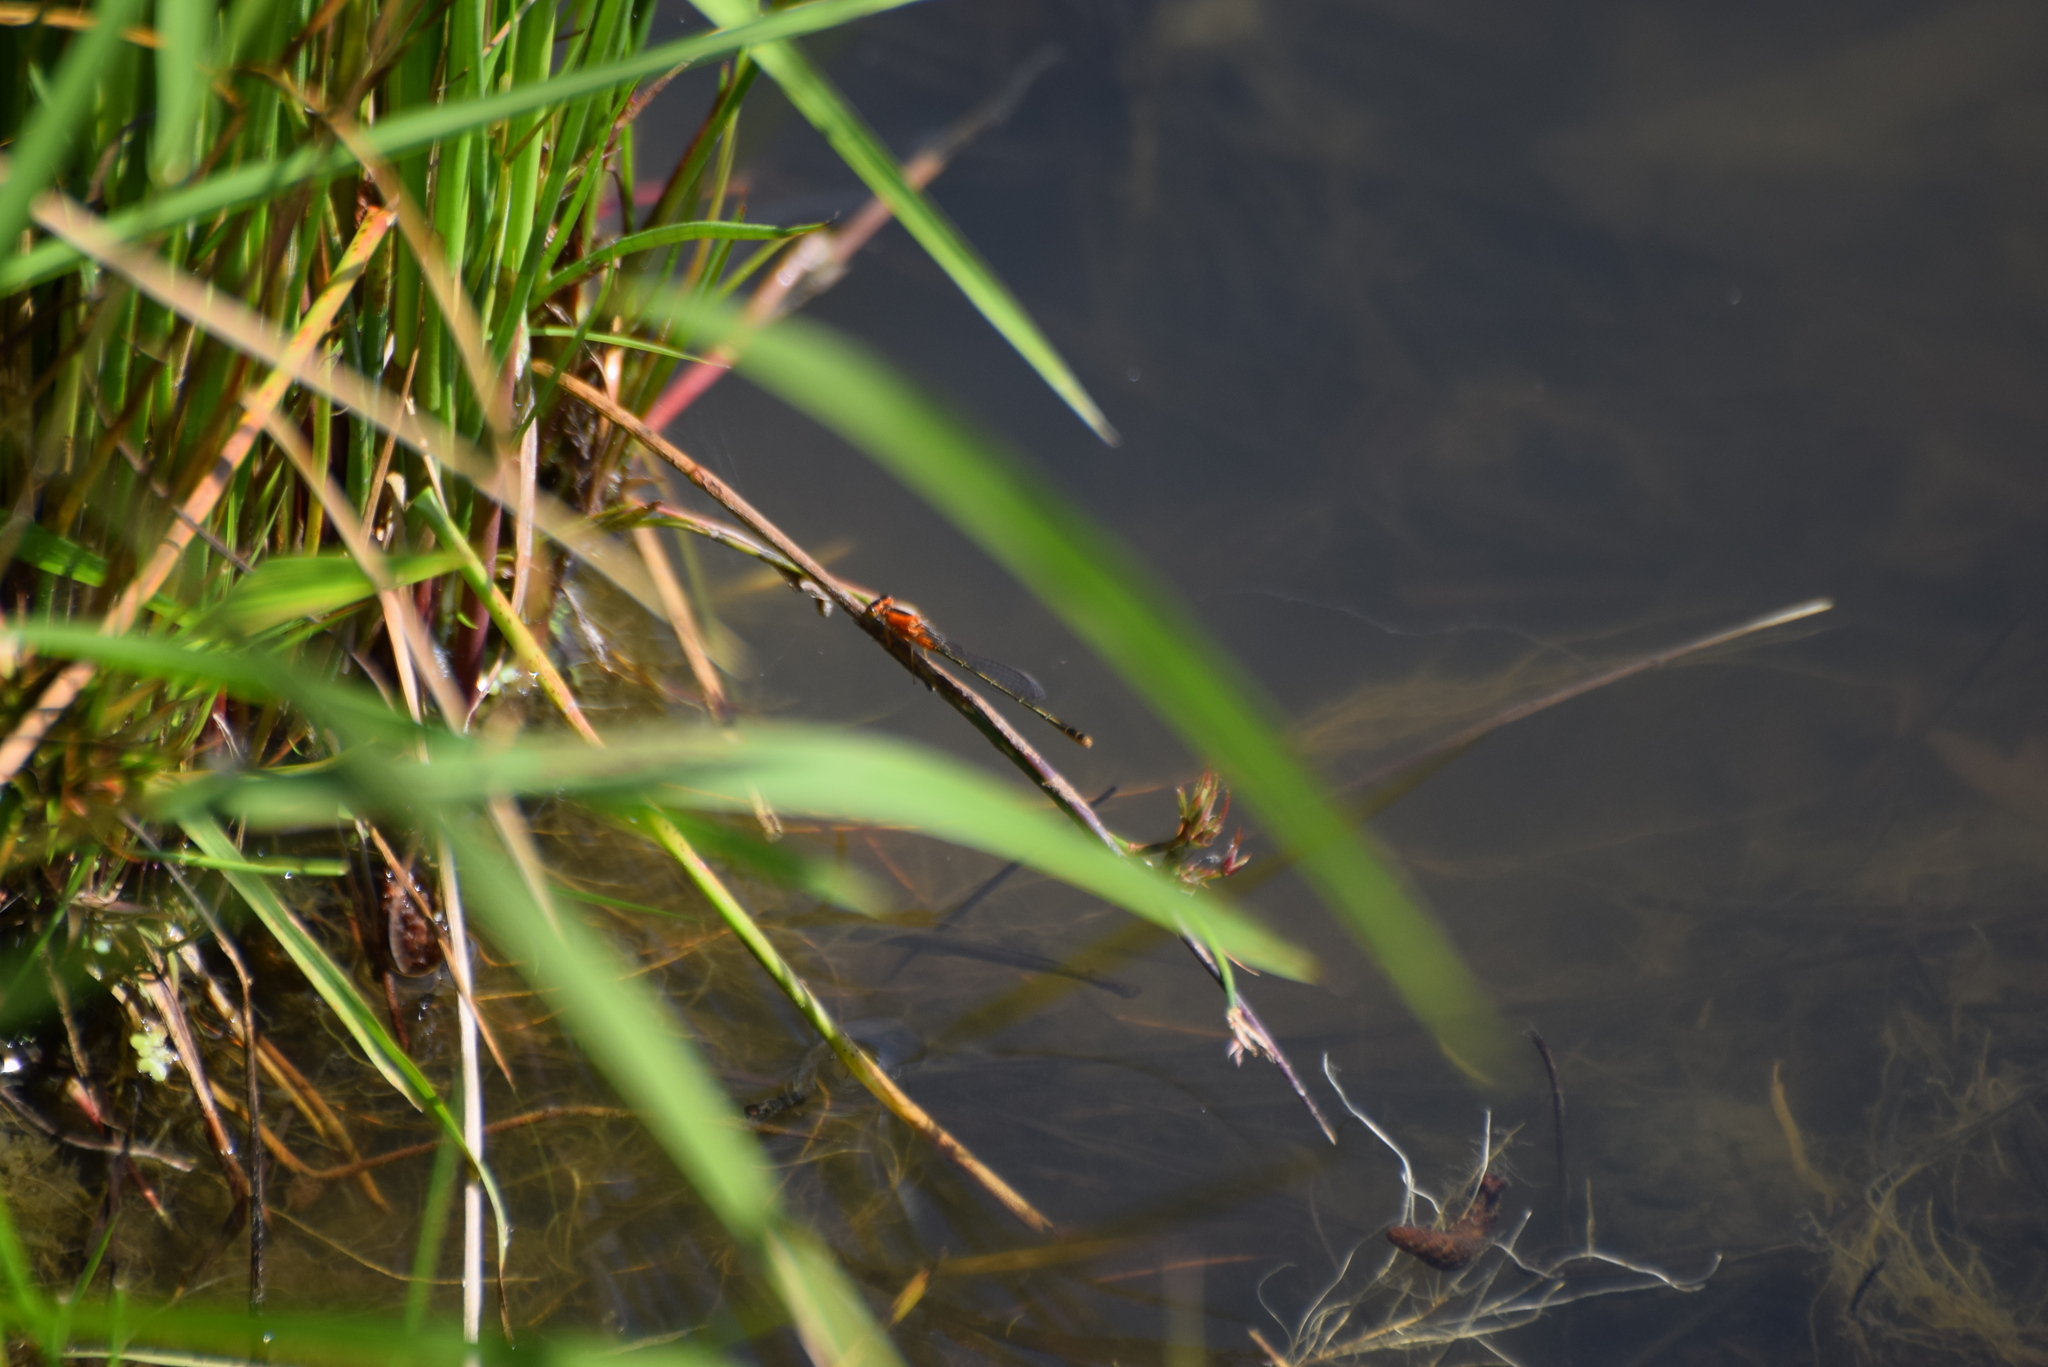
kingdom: Animalia
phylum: Arthropoda
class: Insecta
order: Odonata
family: Coenagrionidae
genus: Ischnura
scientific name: Ischnura ramburii
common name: Rambur's forktail
